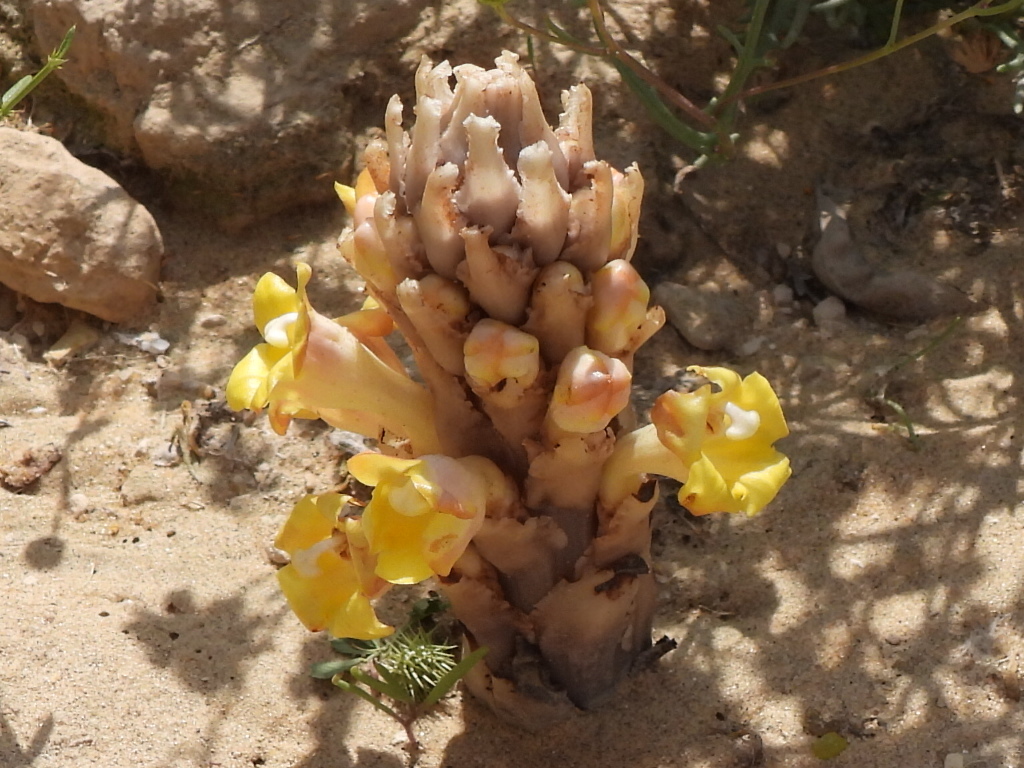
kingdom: Plantae
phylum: Tracheophyta
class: Magnoliopsida
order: Lamiales
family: Orobanchaceae
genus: Cistanche
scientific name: Cistanche tubulosa
